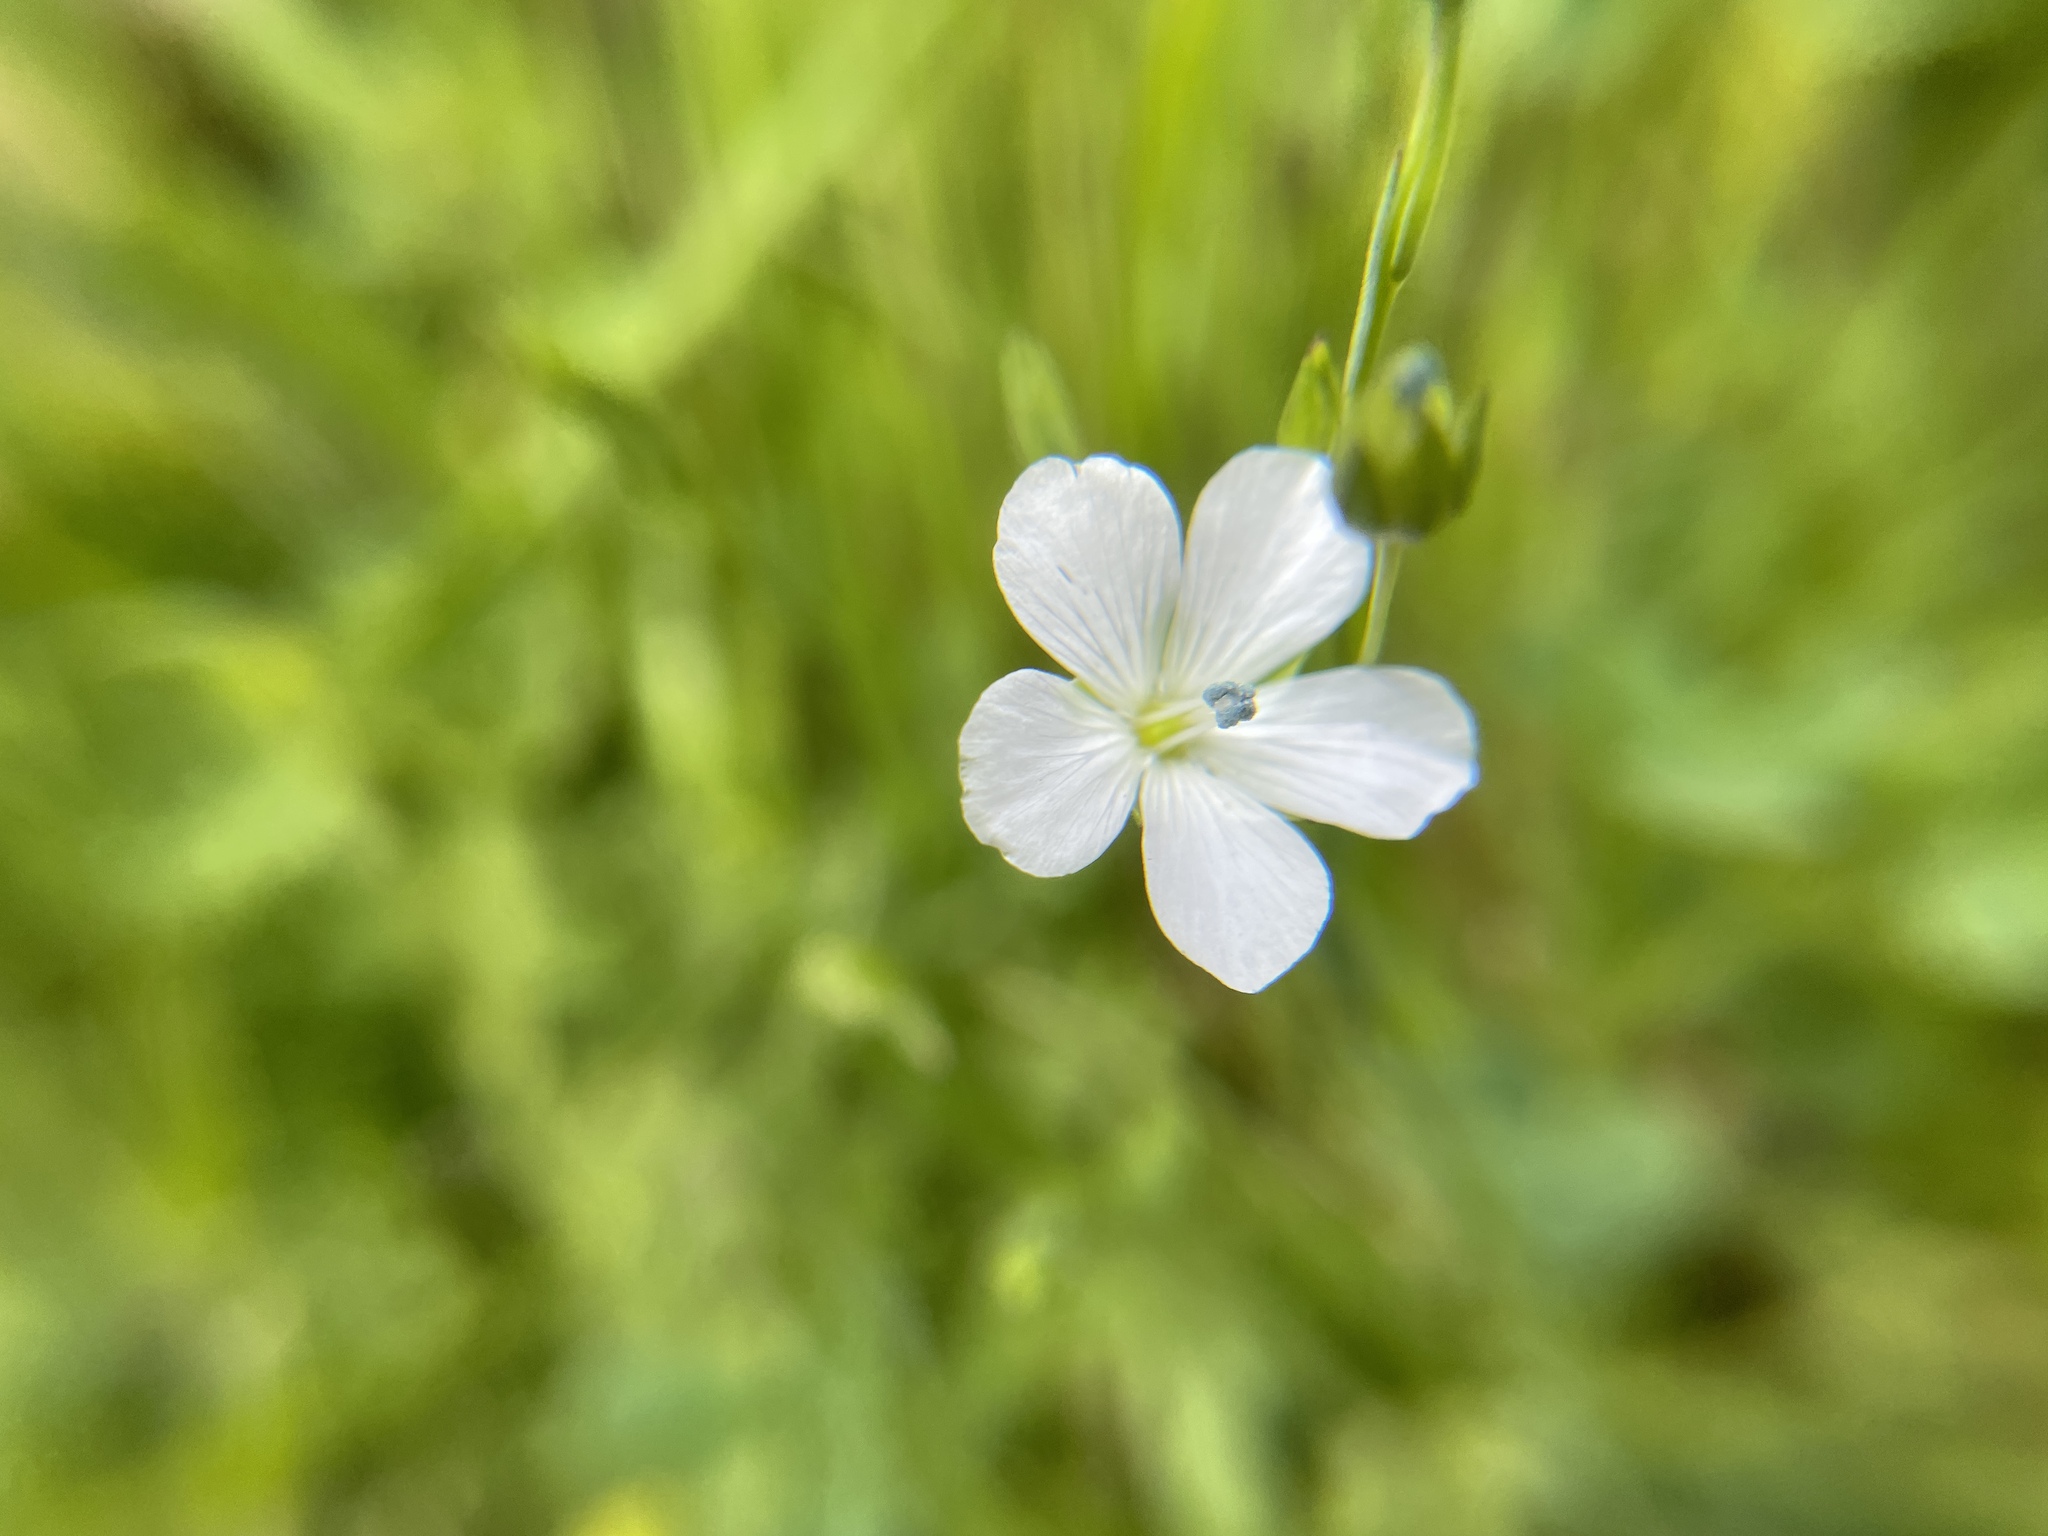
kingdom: Plantae
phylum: Tracheophyta
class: Magnoliopsida
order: Malpighiales
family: Linaceae
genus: Linum
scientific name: Linum bienne
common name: Pale flax
